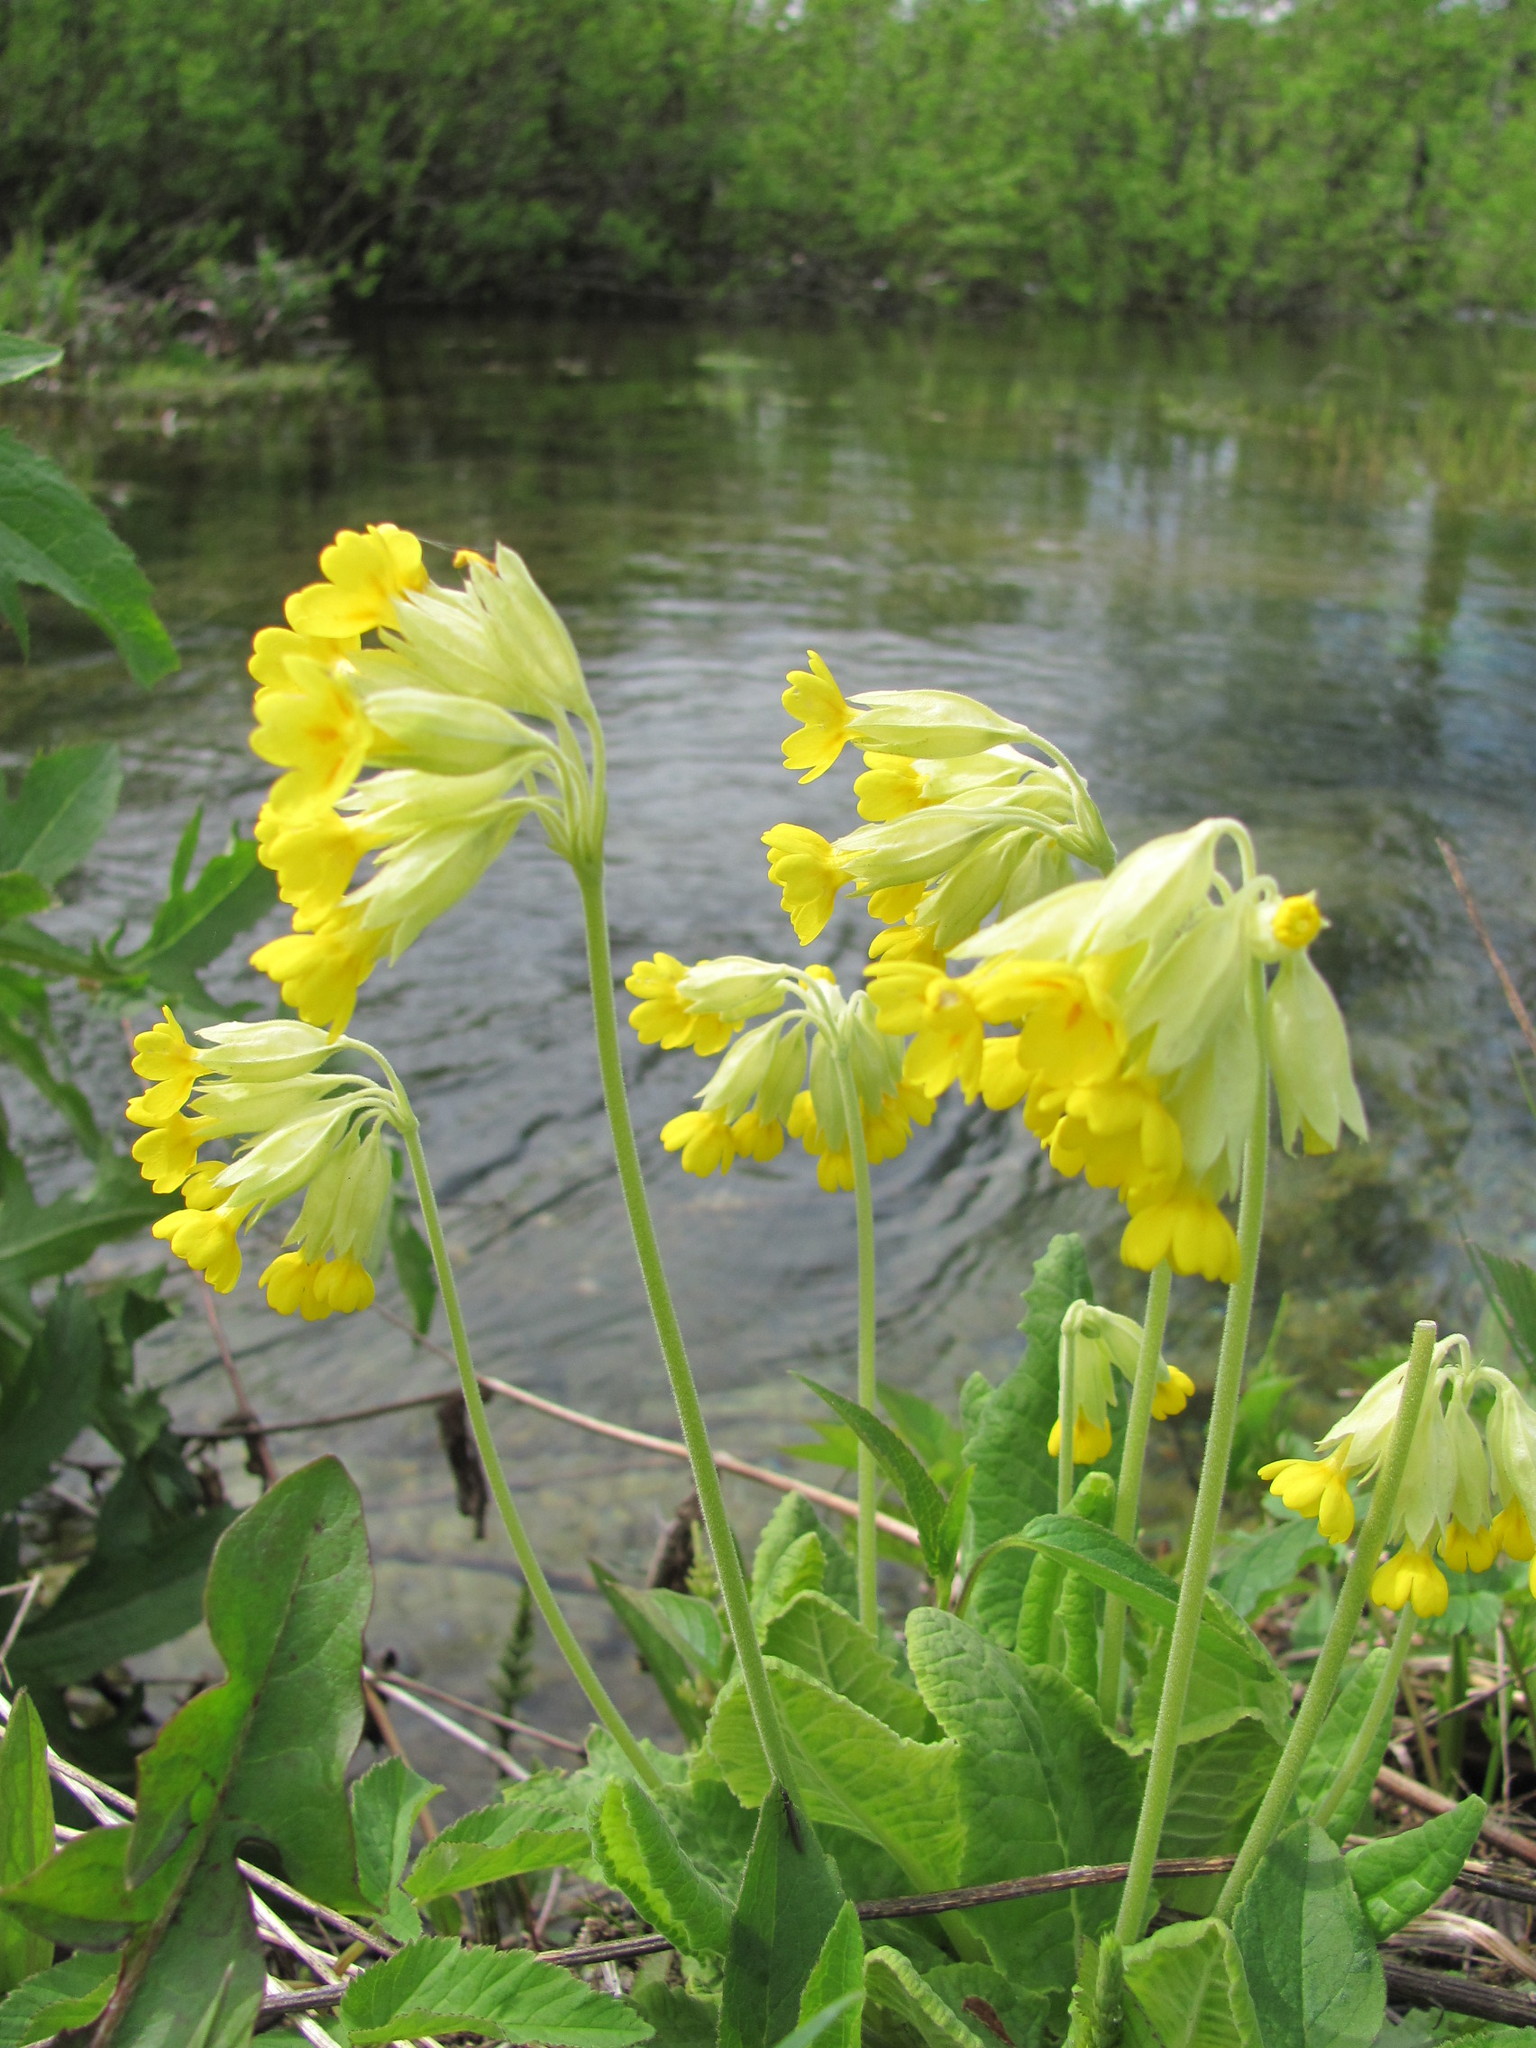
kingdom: Plantae
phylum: Tracheophyta
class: Magnoliopsida
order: Ericales
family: Primulaceae
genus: Primula
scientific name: Primula veris
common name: Cowslip
